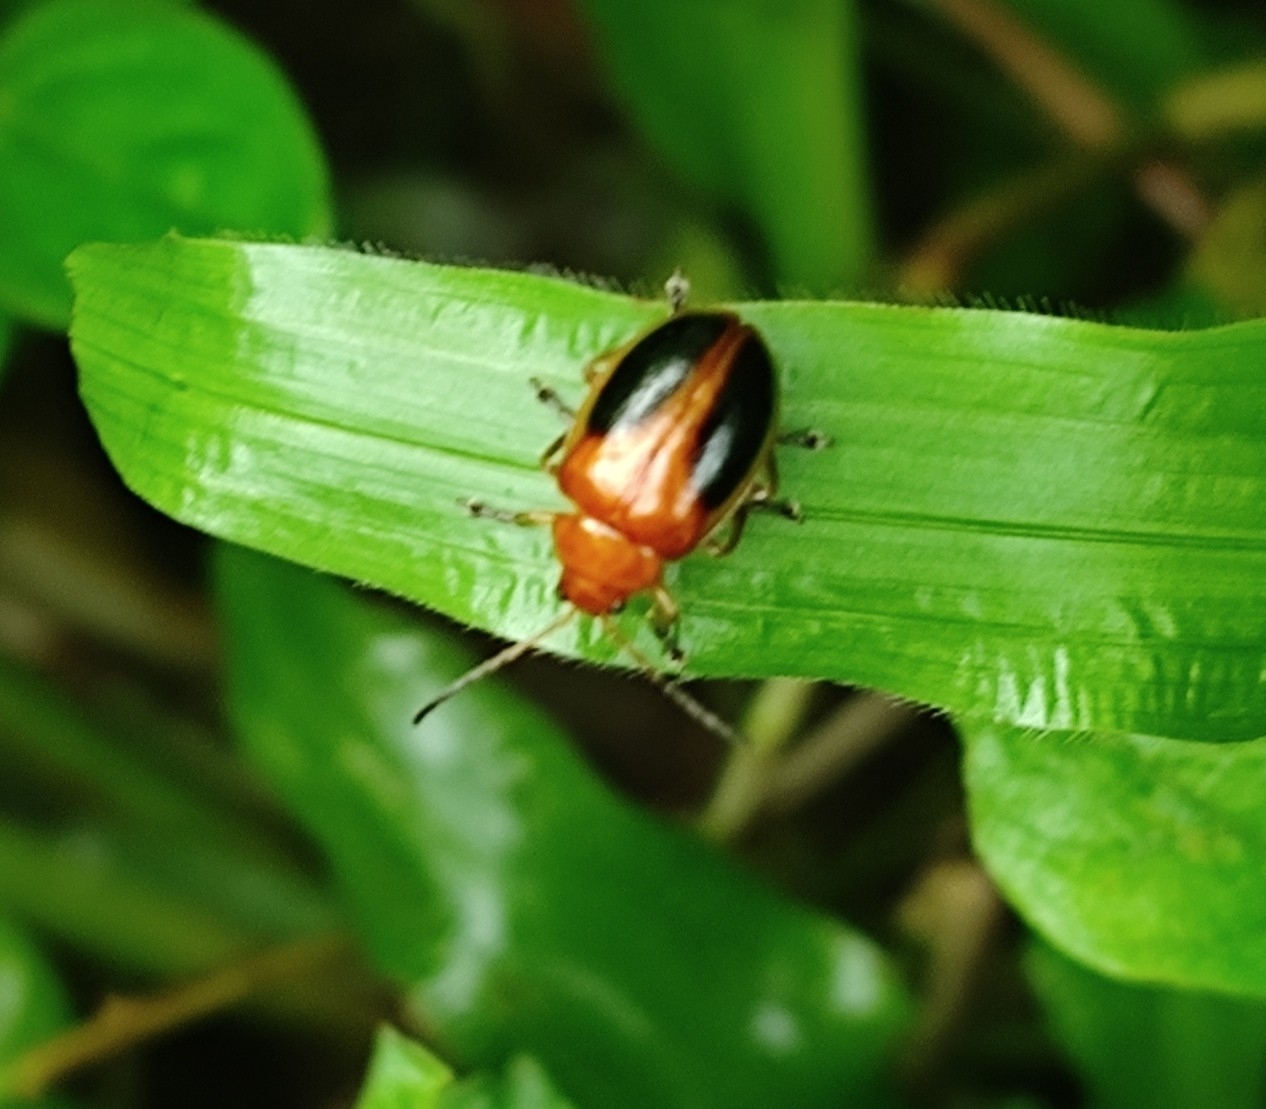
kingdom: Animalia
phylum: Arthropoda
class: Insecta
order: Coleoptera
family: Chrysomelidae
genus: Oides
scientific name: Oides affinis
